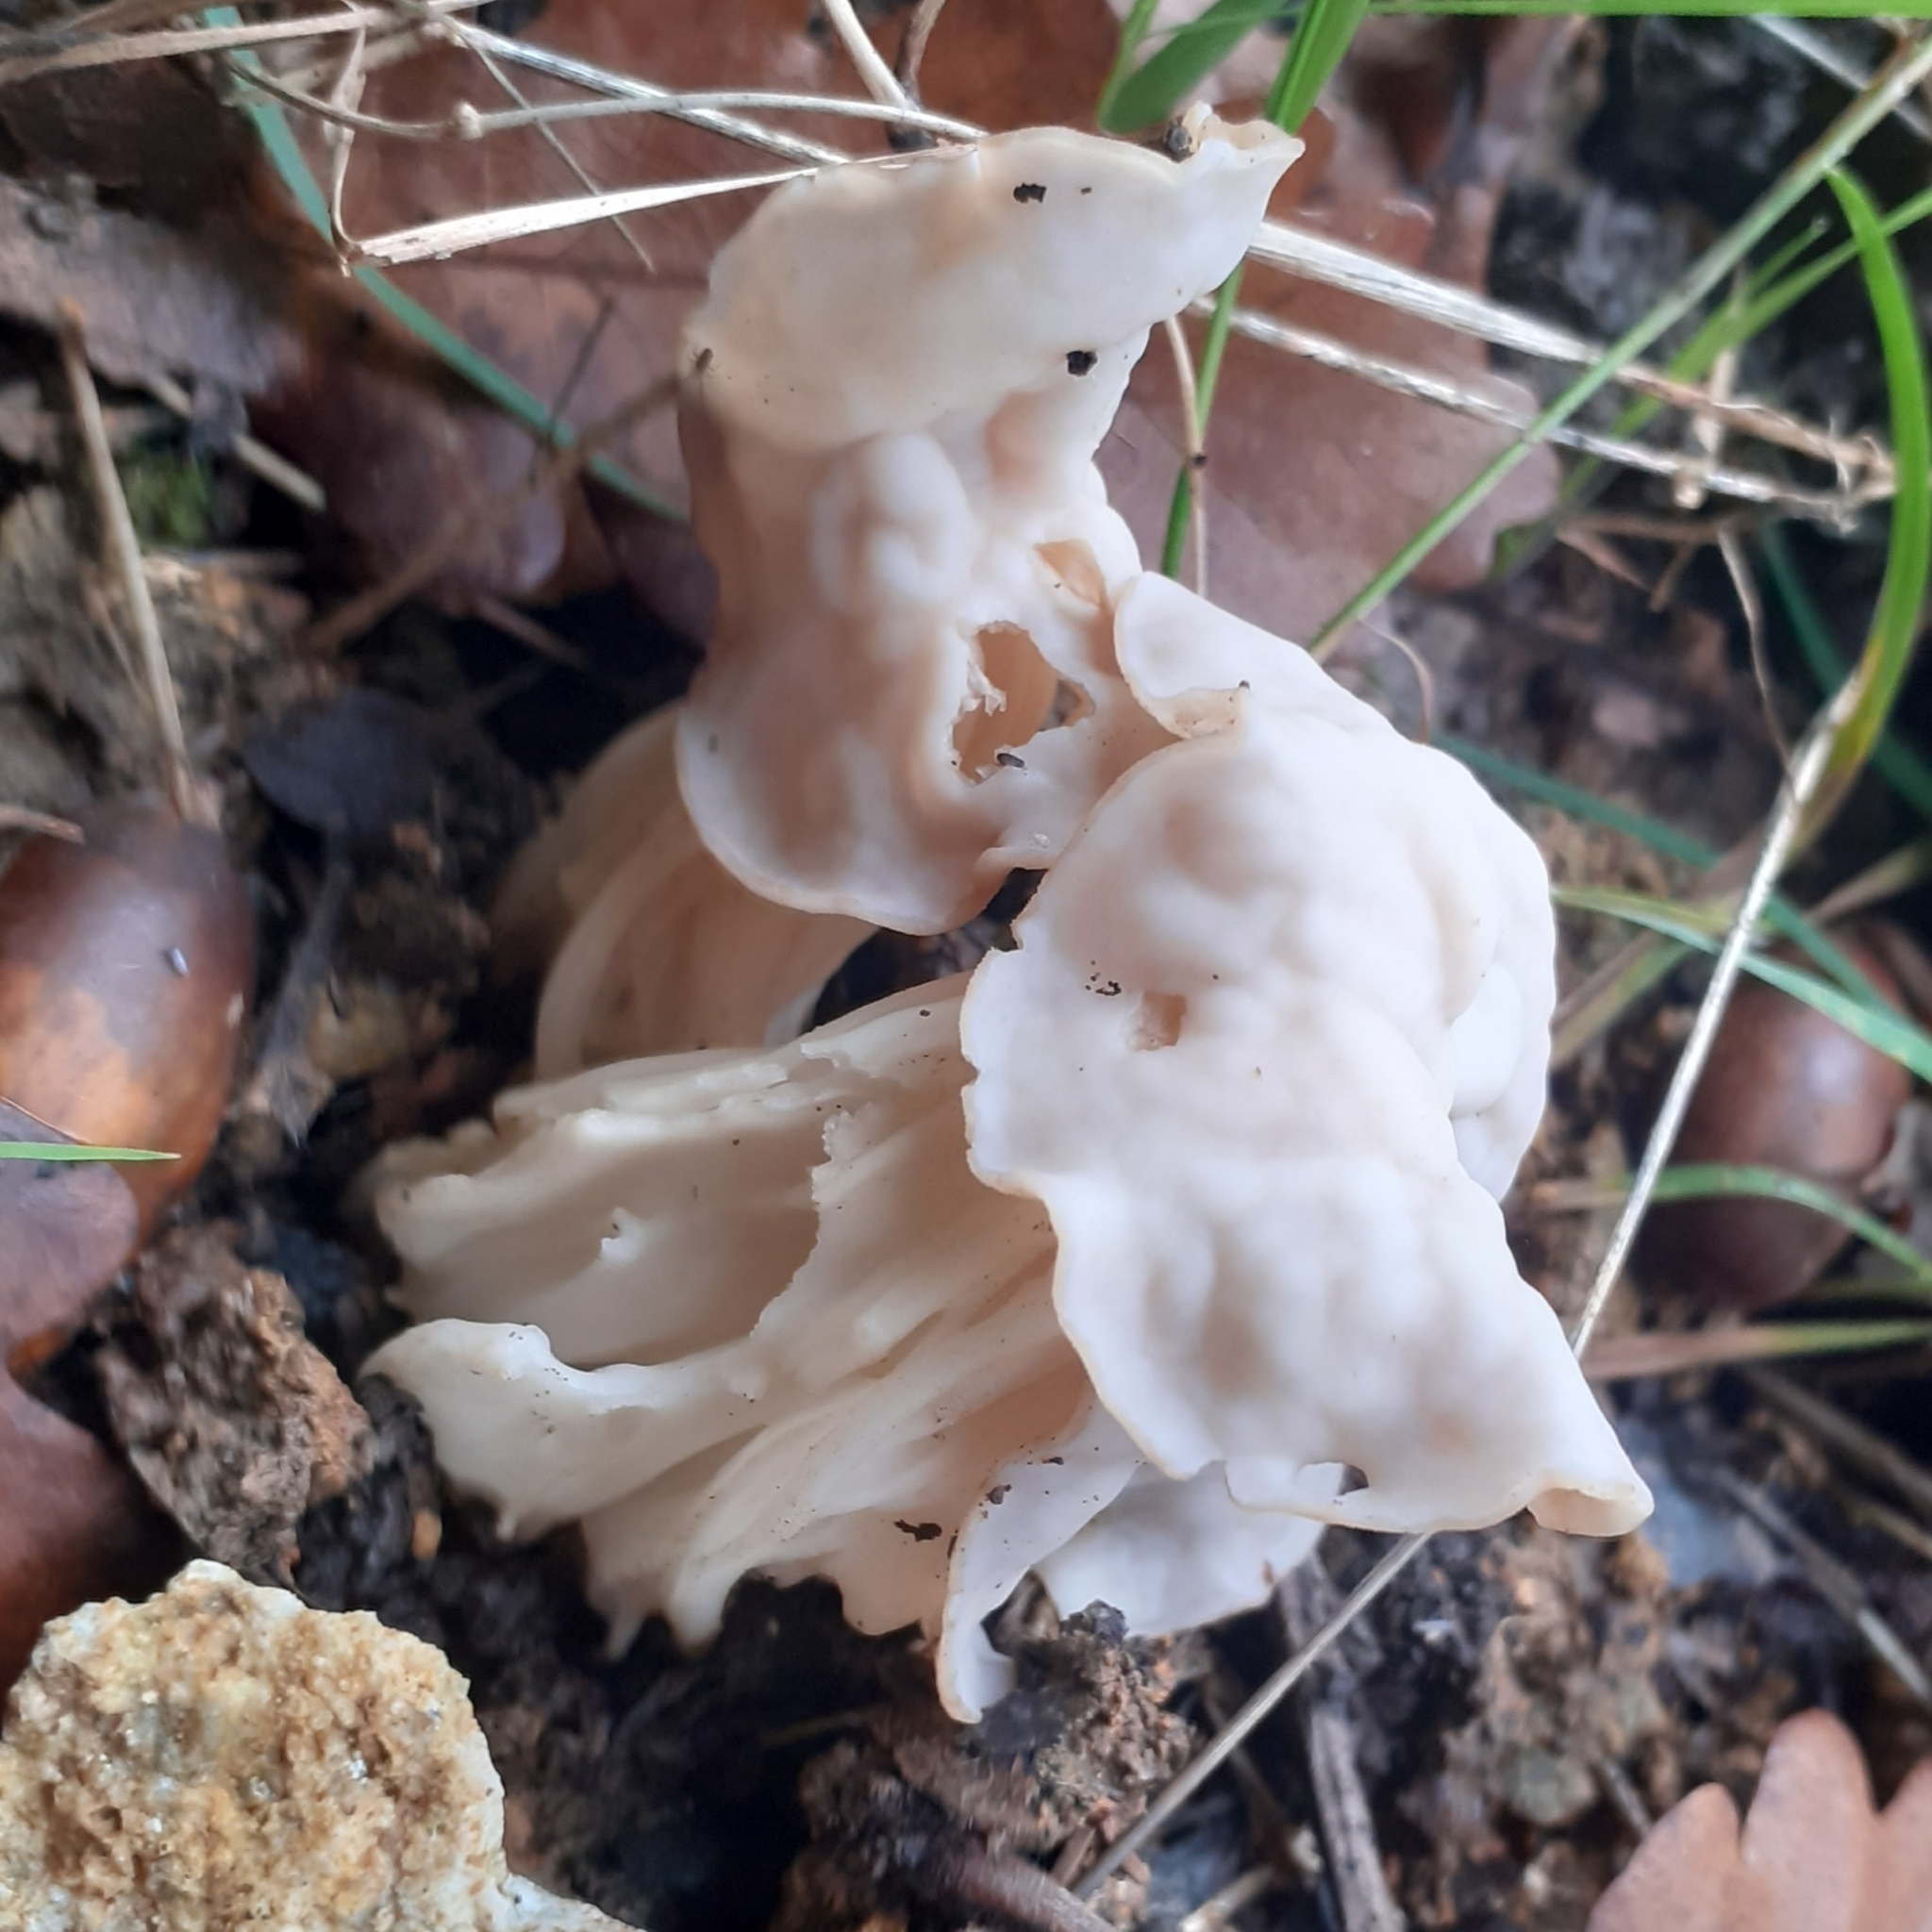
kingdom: Fungi
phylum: Ascomycota
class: Pezizomycetes
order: Pezizales
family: Helvellaceae
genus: Helvella
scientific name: Helvella crispa
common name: White saddle
